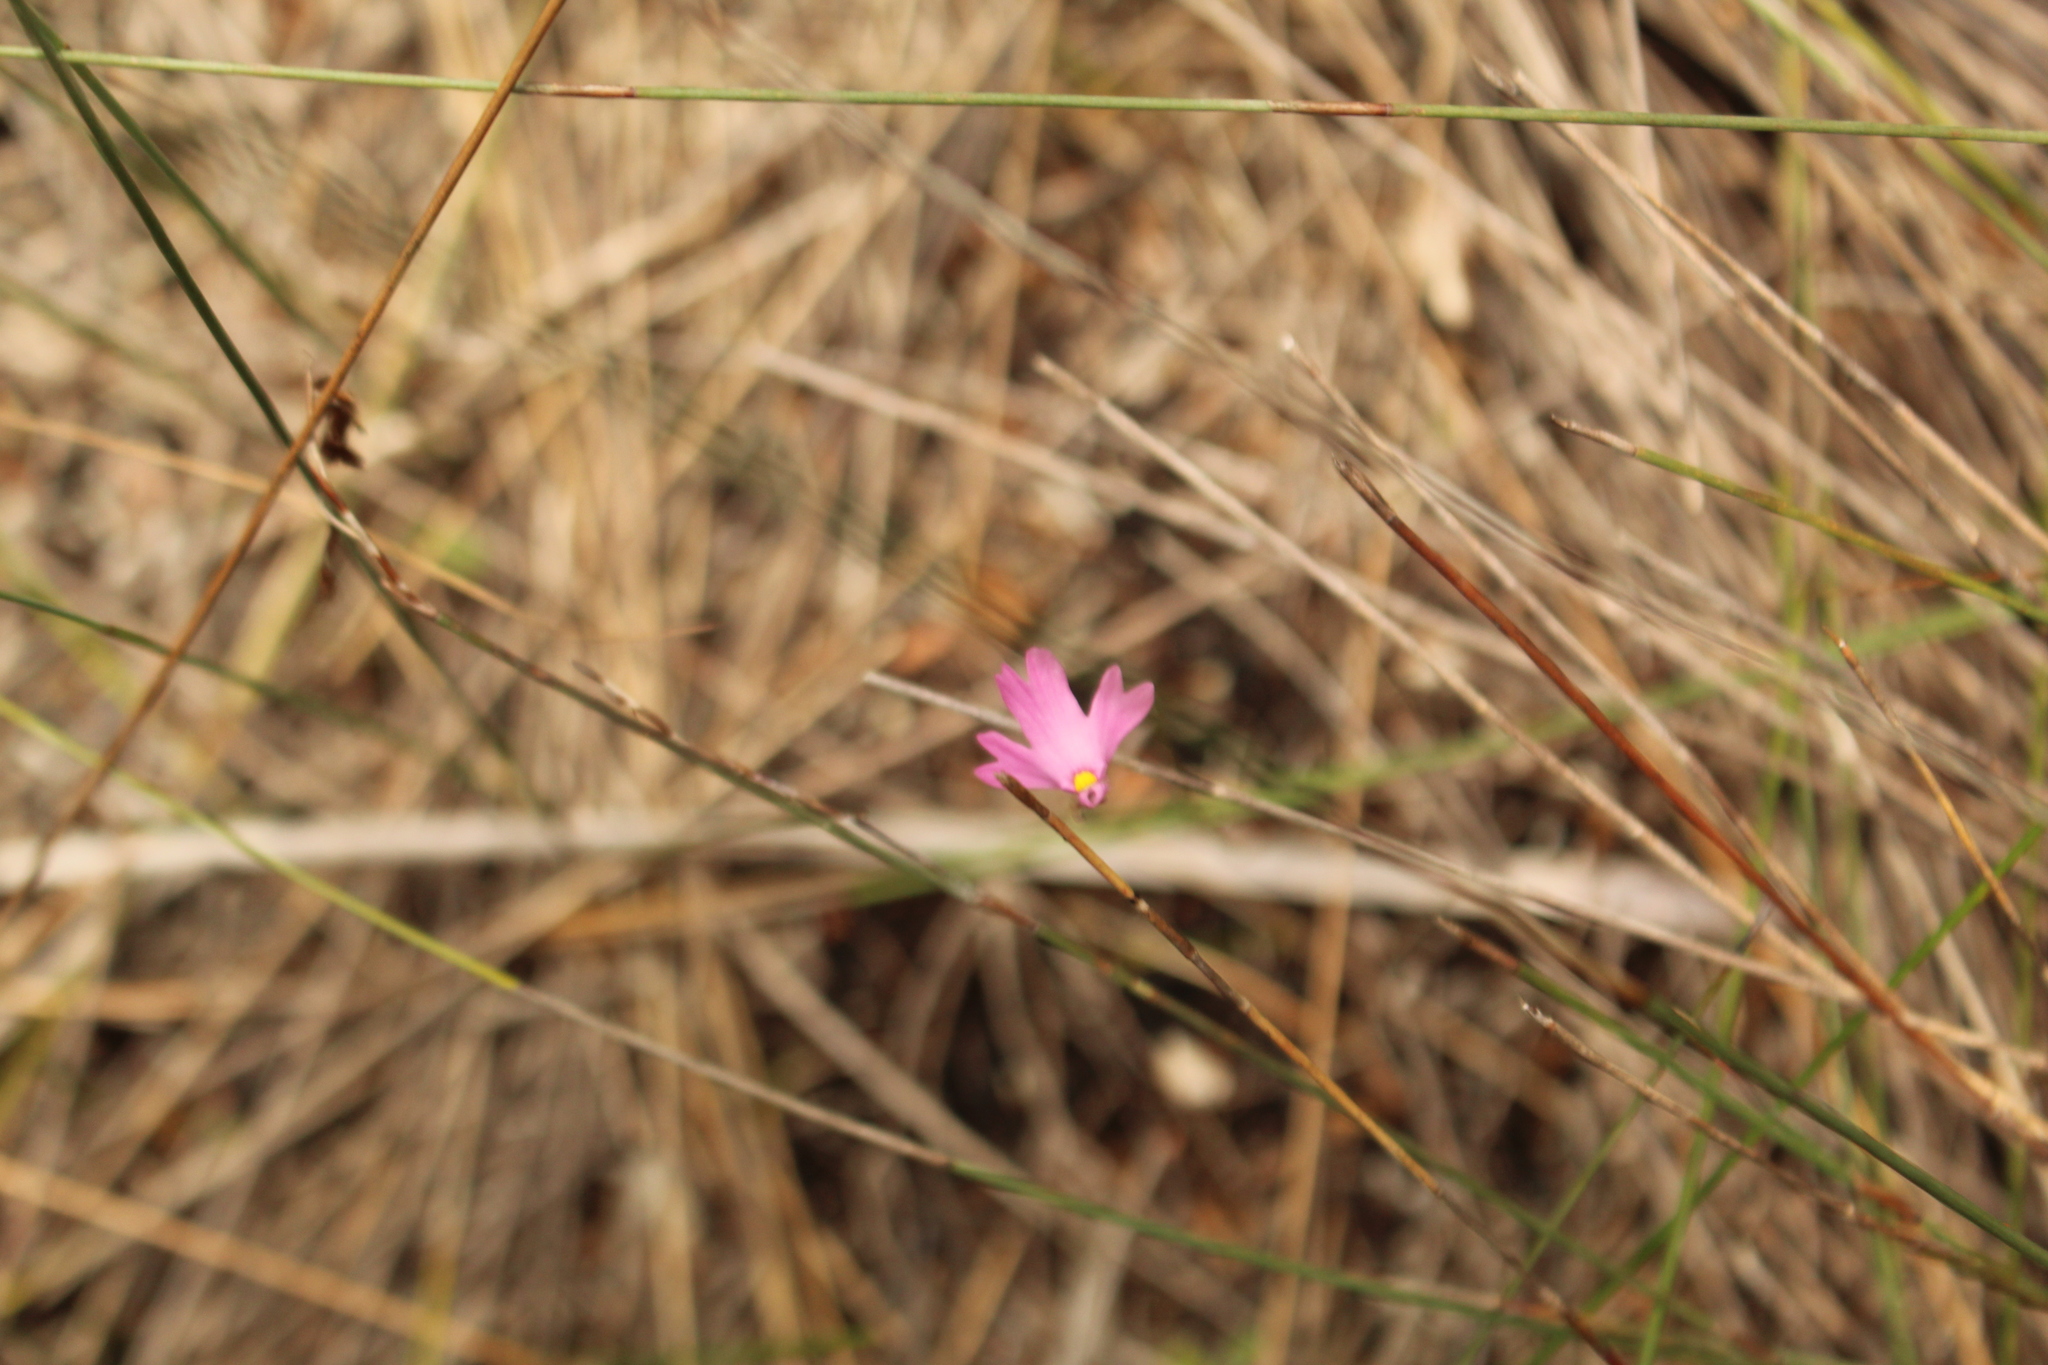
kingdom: Plantae
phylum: Tracheophyta
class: Magnoliopsida
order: Lamiales
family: Lentibulariaceae
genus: Utricularia
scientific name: Utricularia multifida
